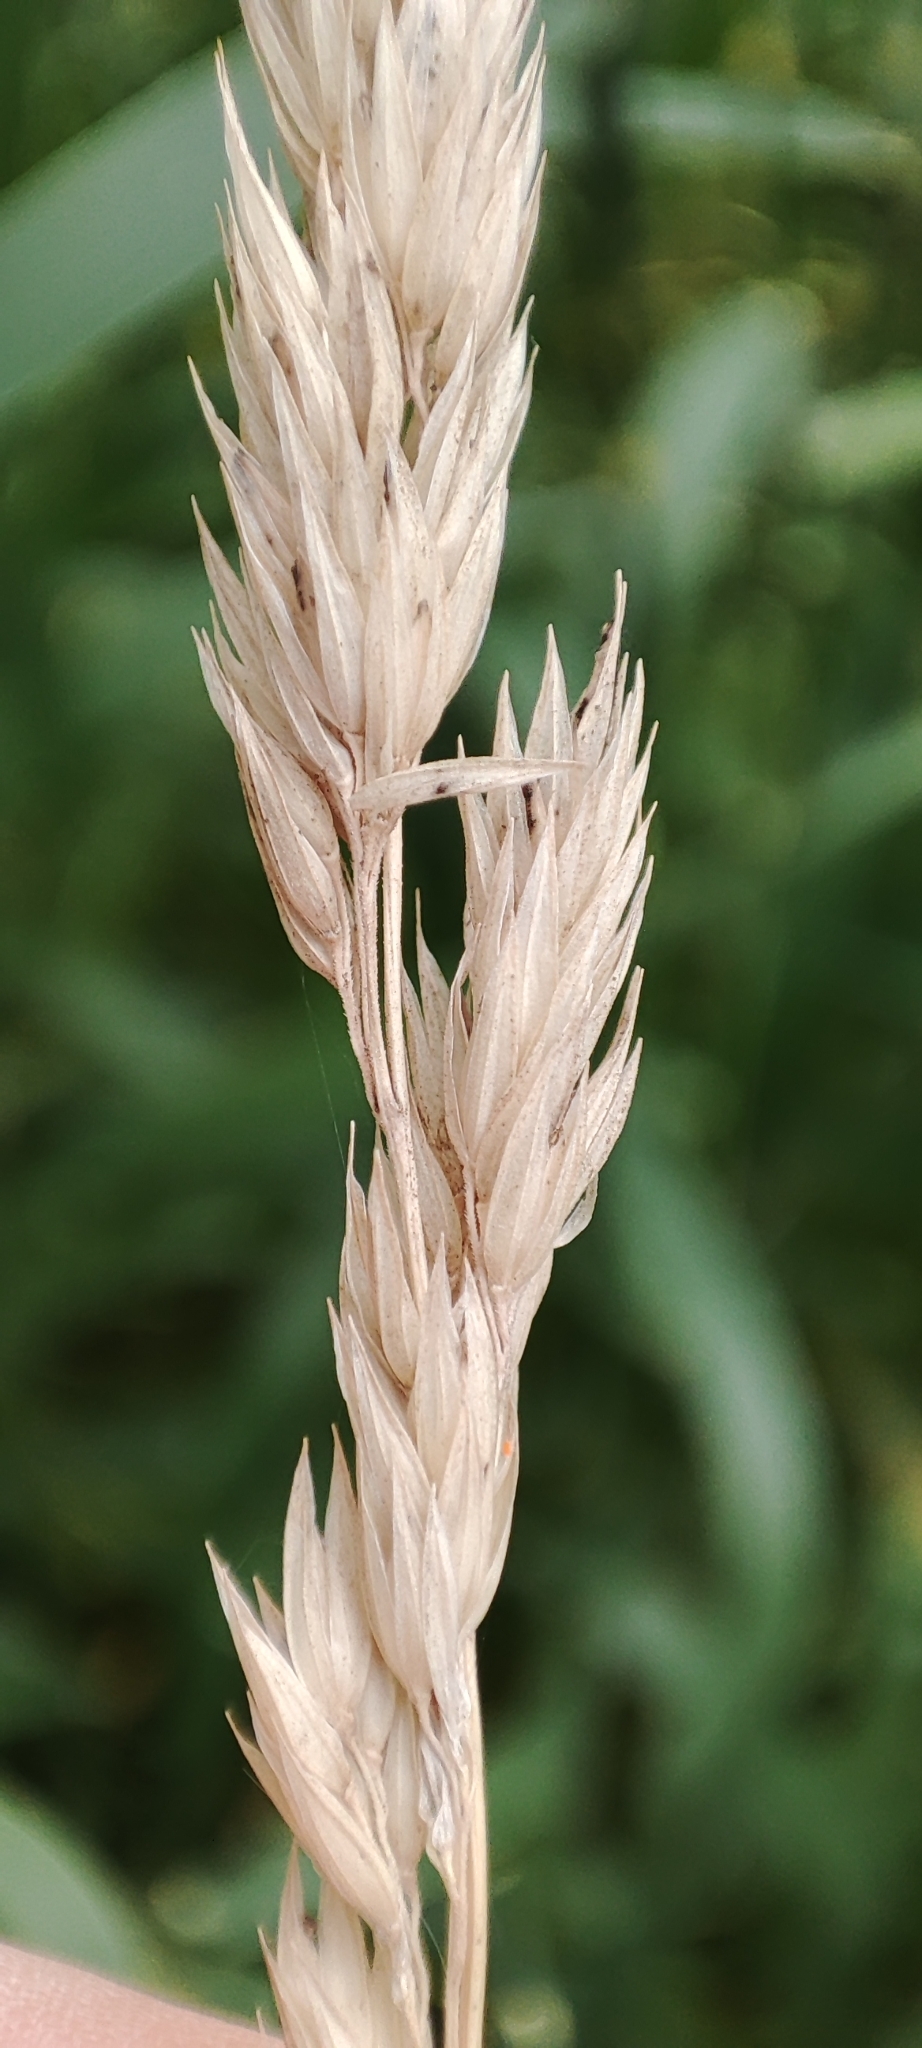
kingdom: Plantae
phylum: Tracheophyta
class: Liliopsida
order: Poales
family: Poaceae
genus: Phalaris
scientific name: Phalaris arundinacea
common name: Reed canary-grass
